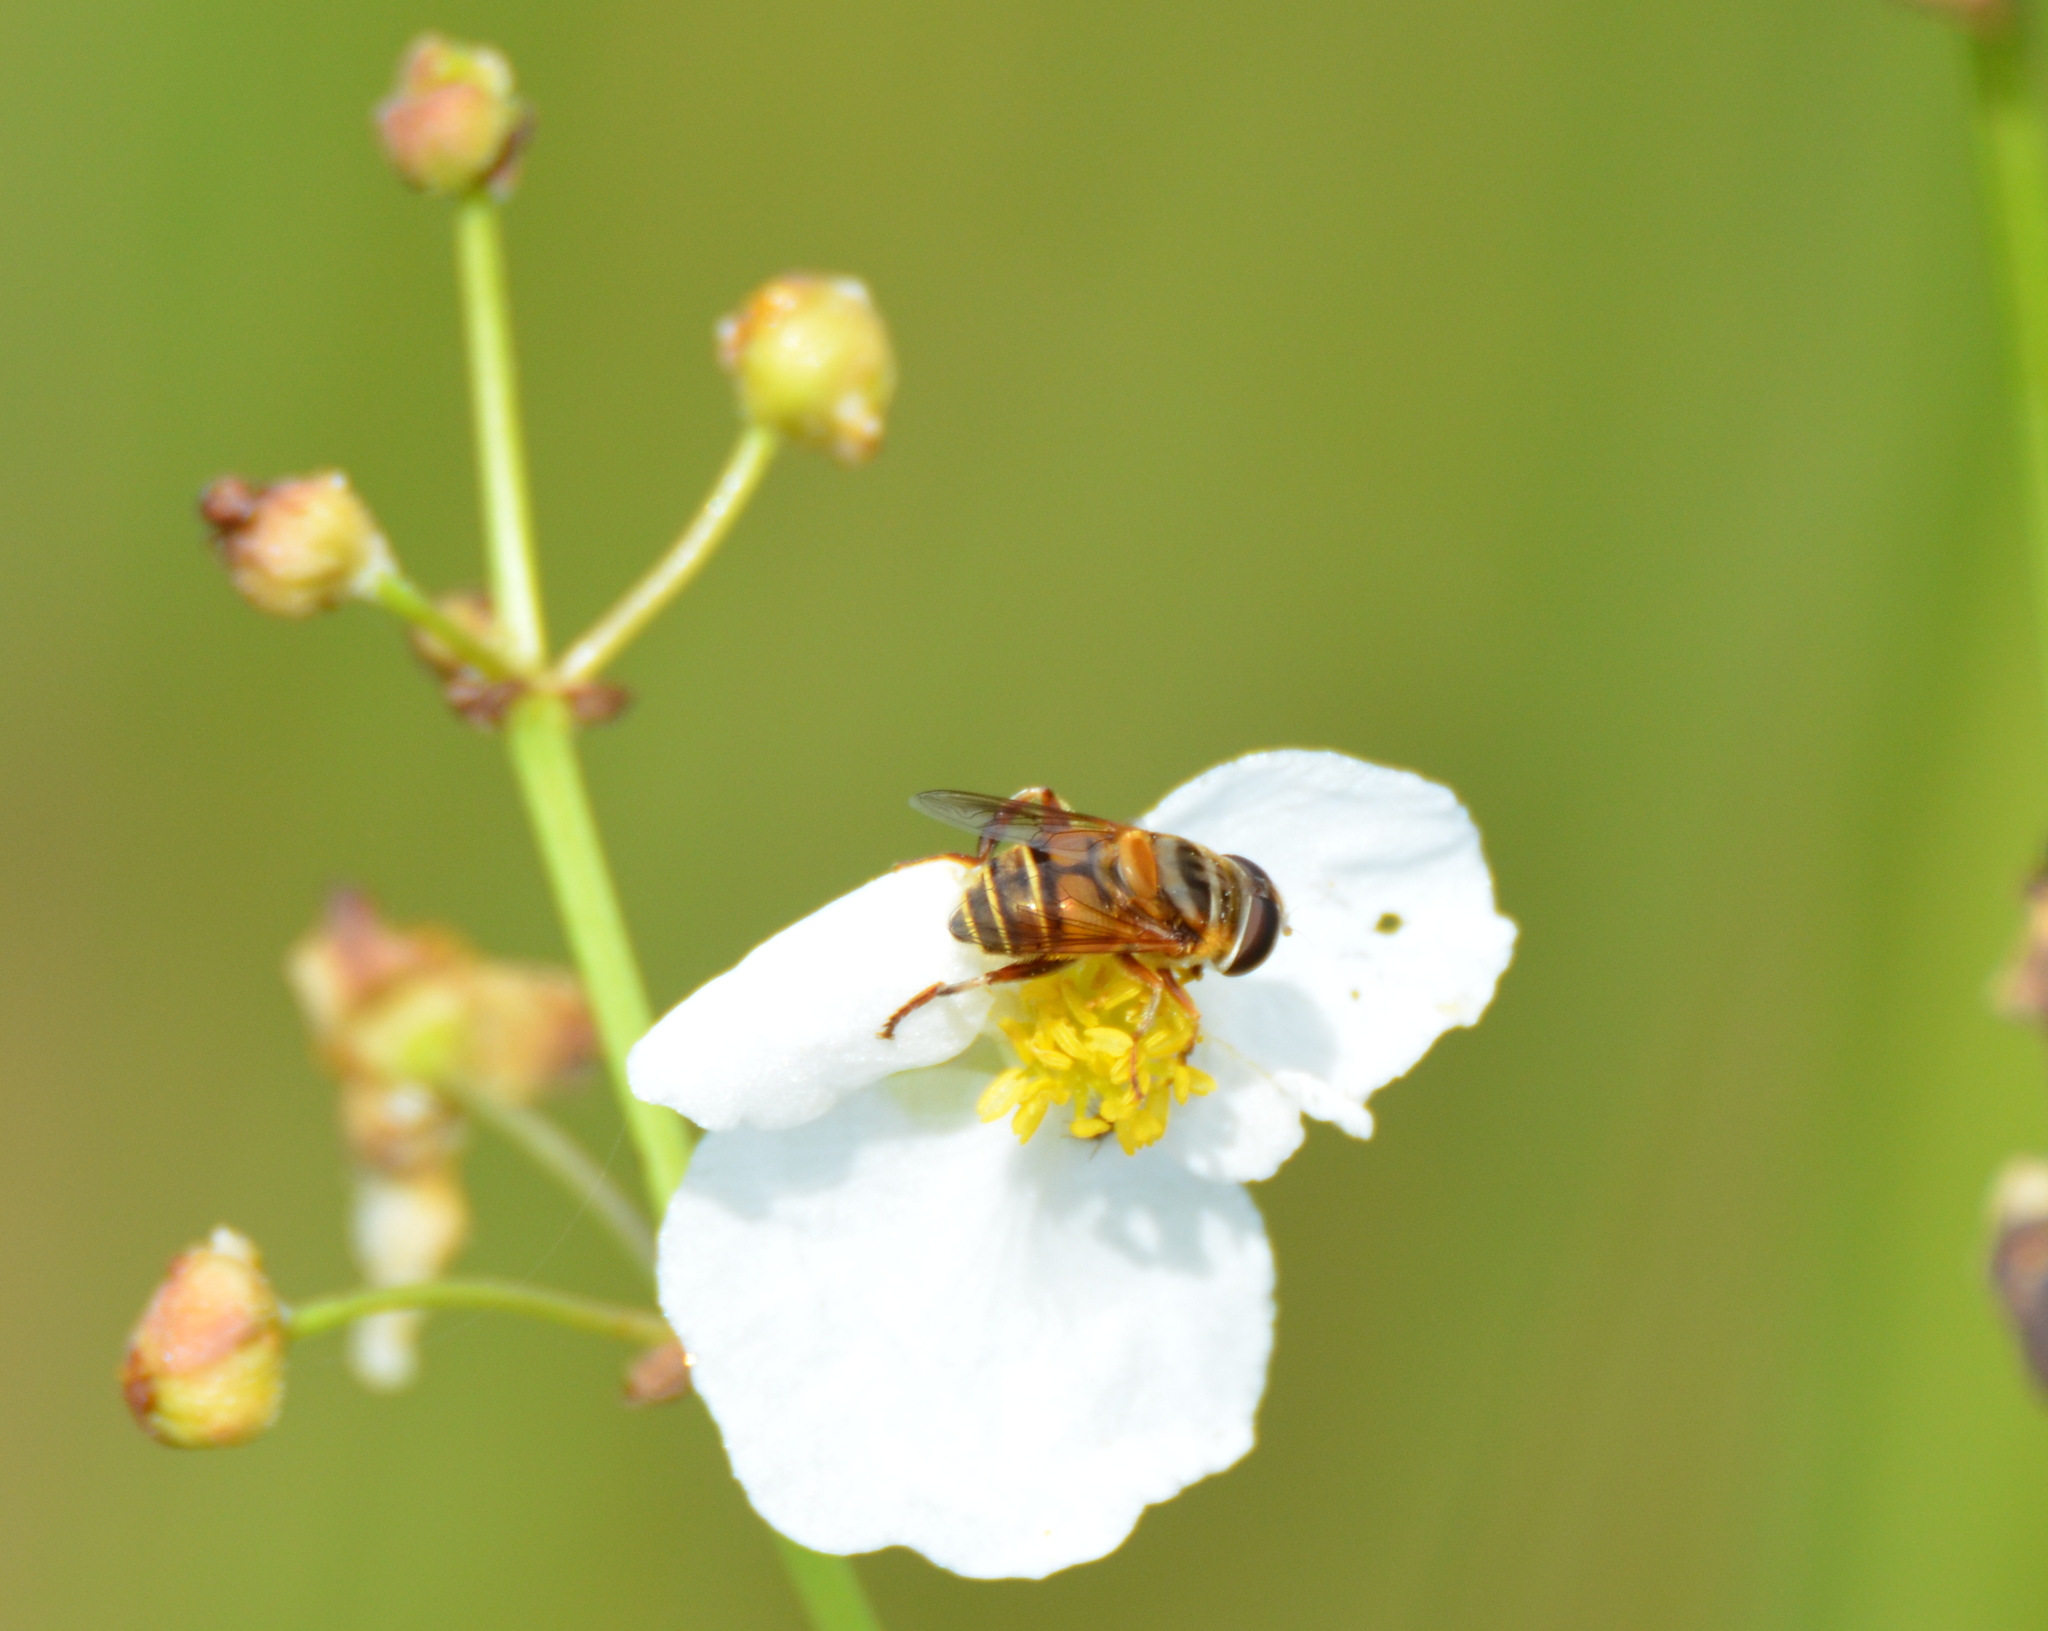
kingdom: Animalia
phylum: Arthropoda
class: Insecta
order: Diptera
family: Syrphidae
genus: Palpada
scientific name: Palpada vinetorum
